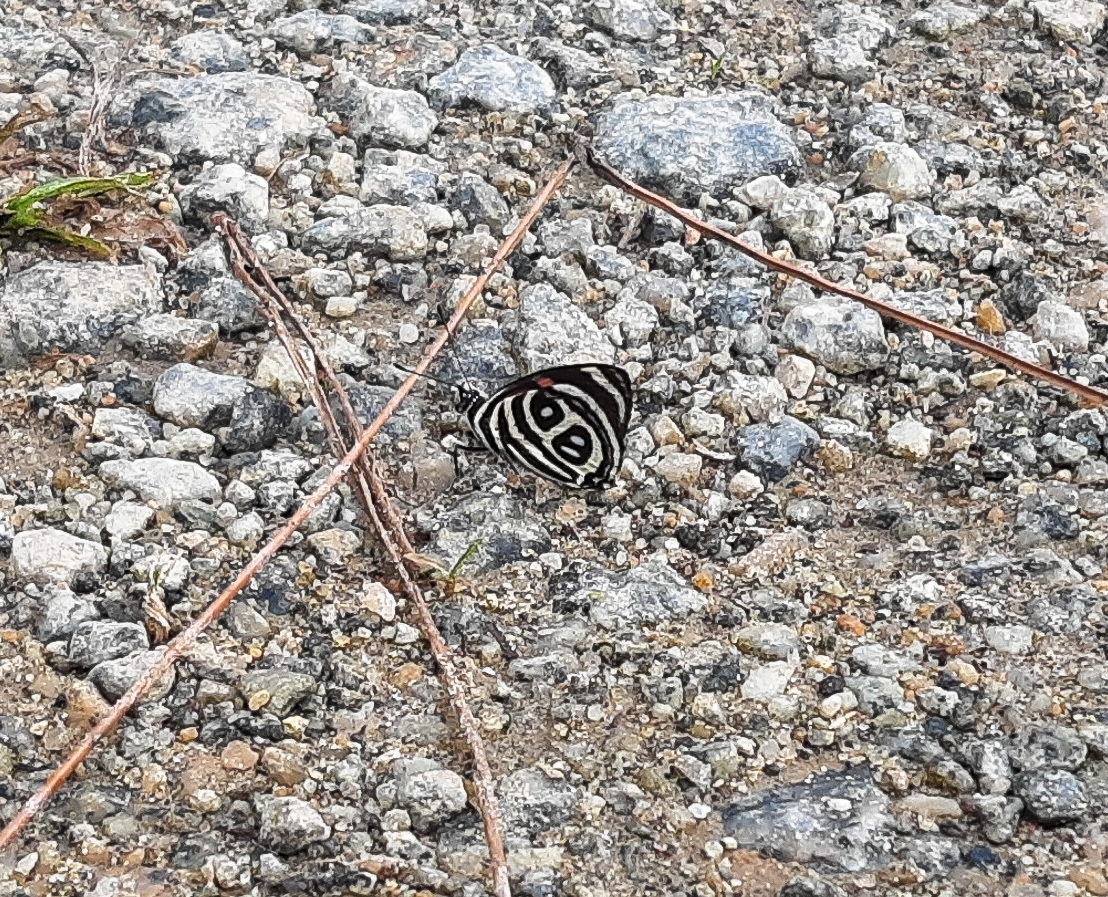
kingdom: Animalia
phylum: Arthropoda
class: Insecta
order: Lepidoptera
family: Nymphalidae
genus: Catagramma
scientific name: Catagramma pyracmon
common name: Google-eyed eighty-eight
